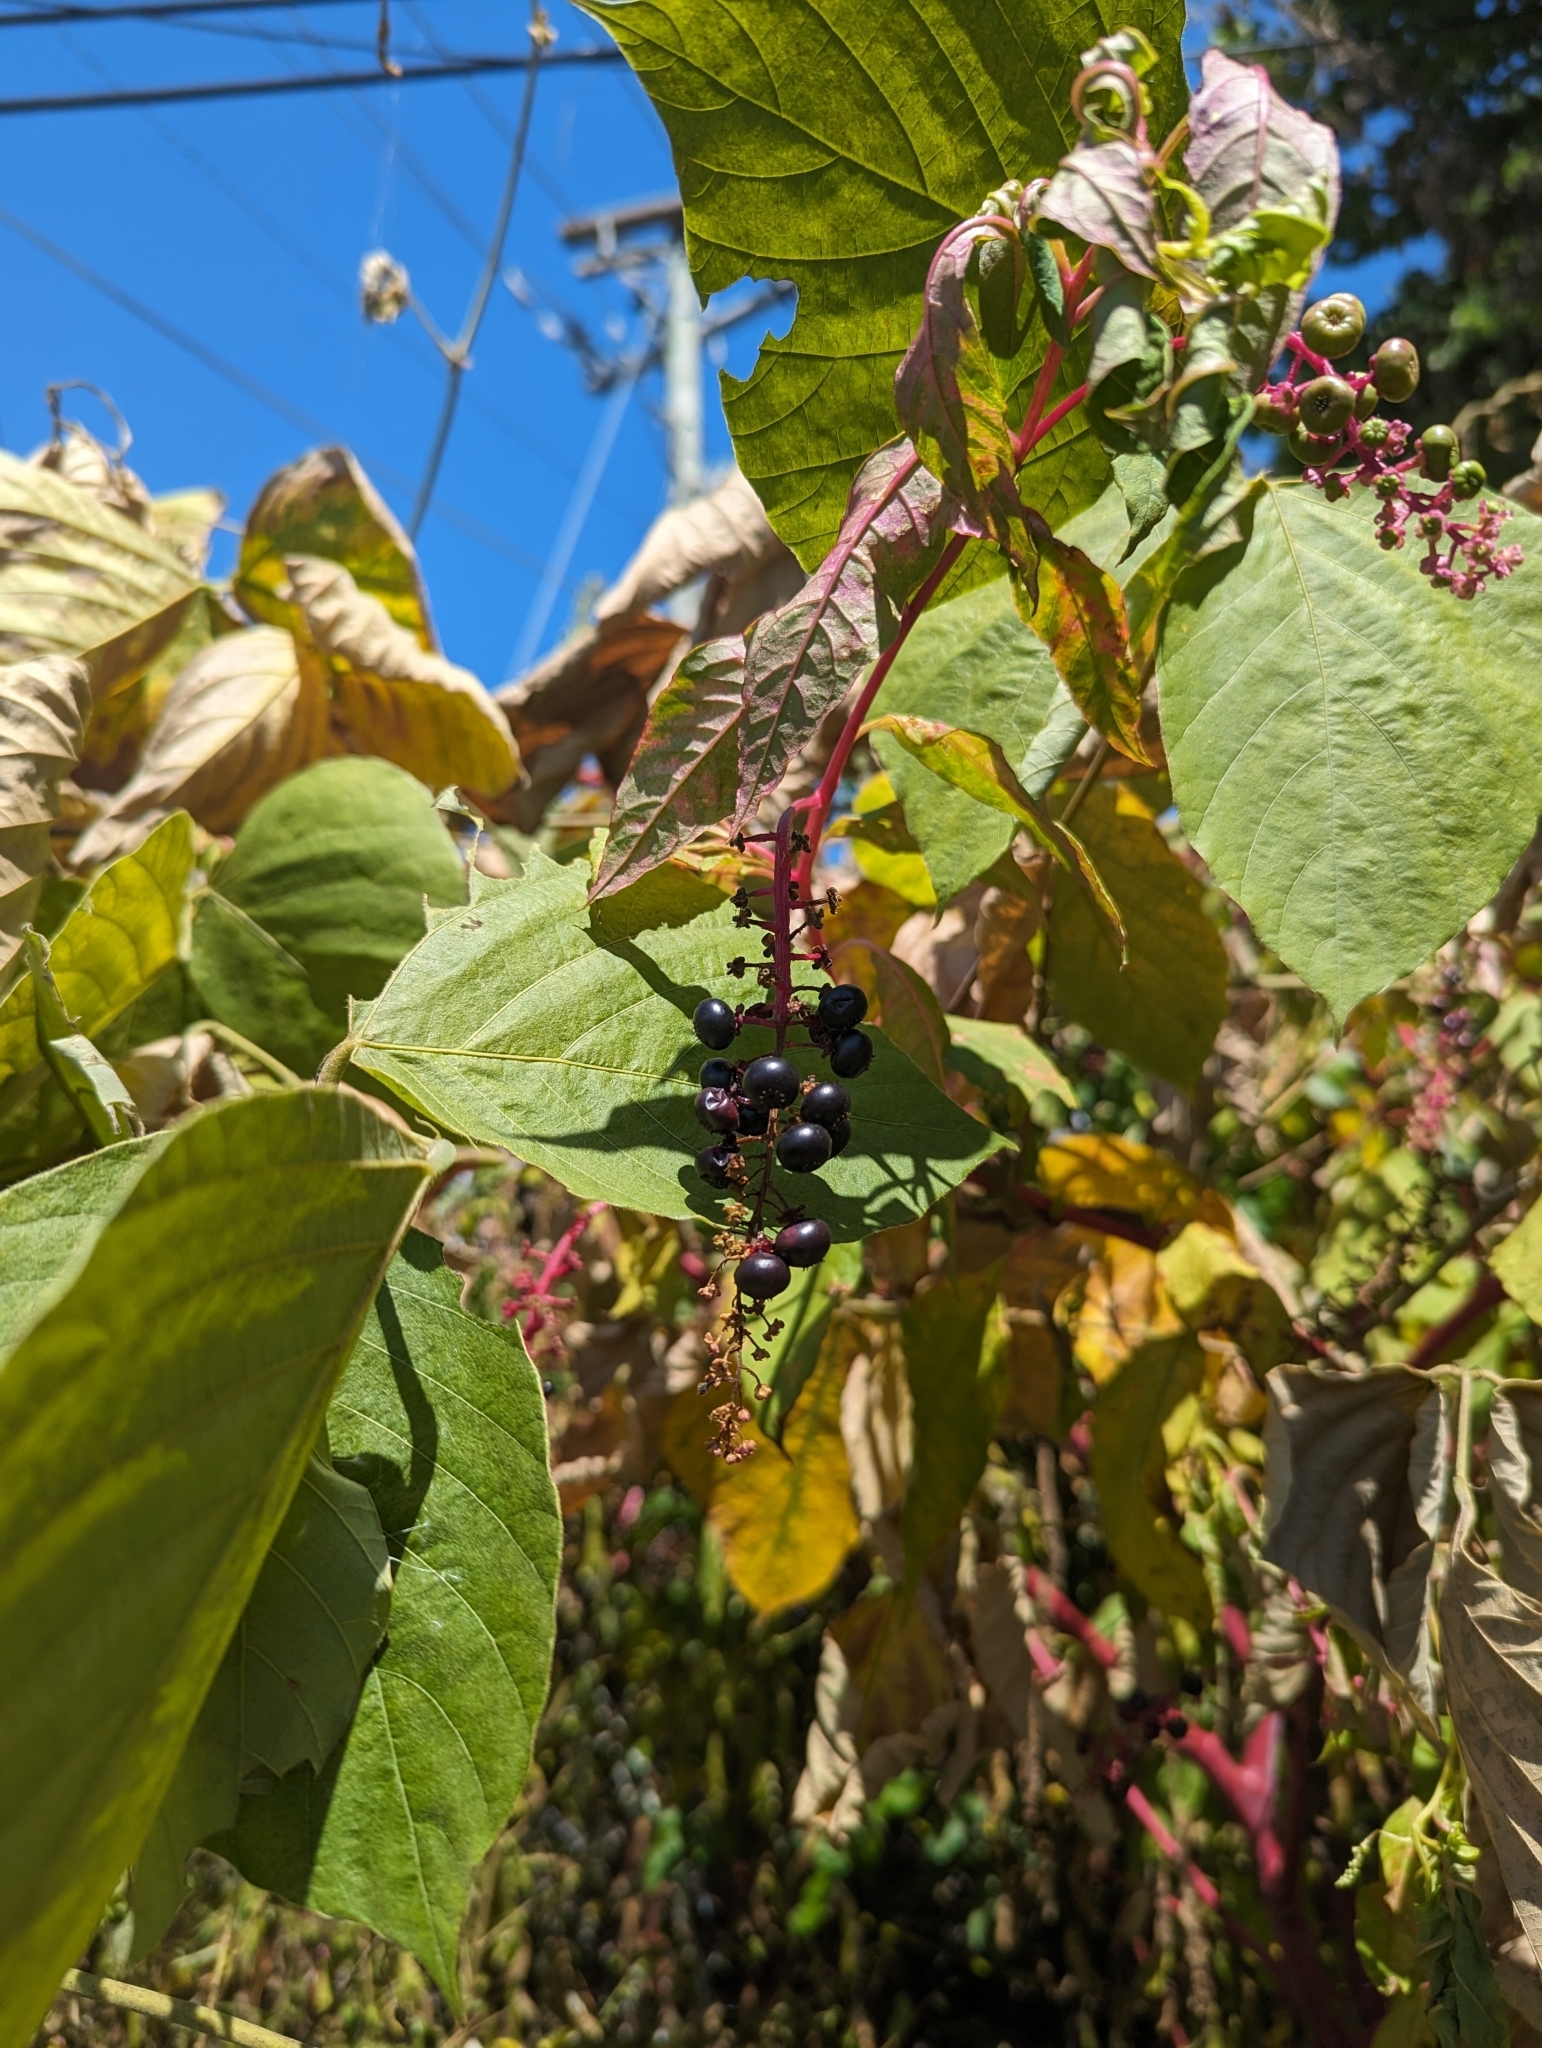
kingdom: Plantae
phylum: Tracheophyta
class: Magnoliopsida
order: Caryophyllales
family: Phytolaccaceae
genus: Phytolacca
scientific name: Phytolacca americana
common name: American pokeweed
